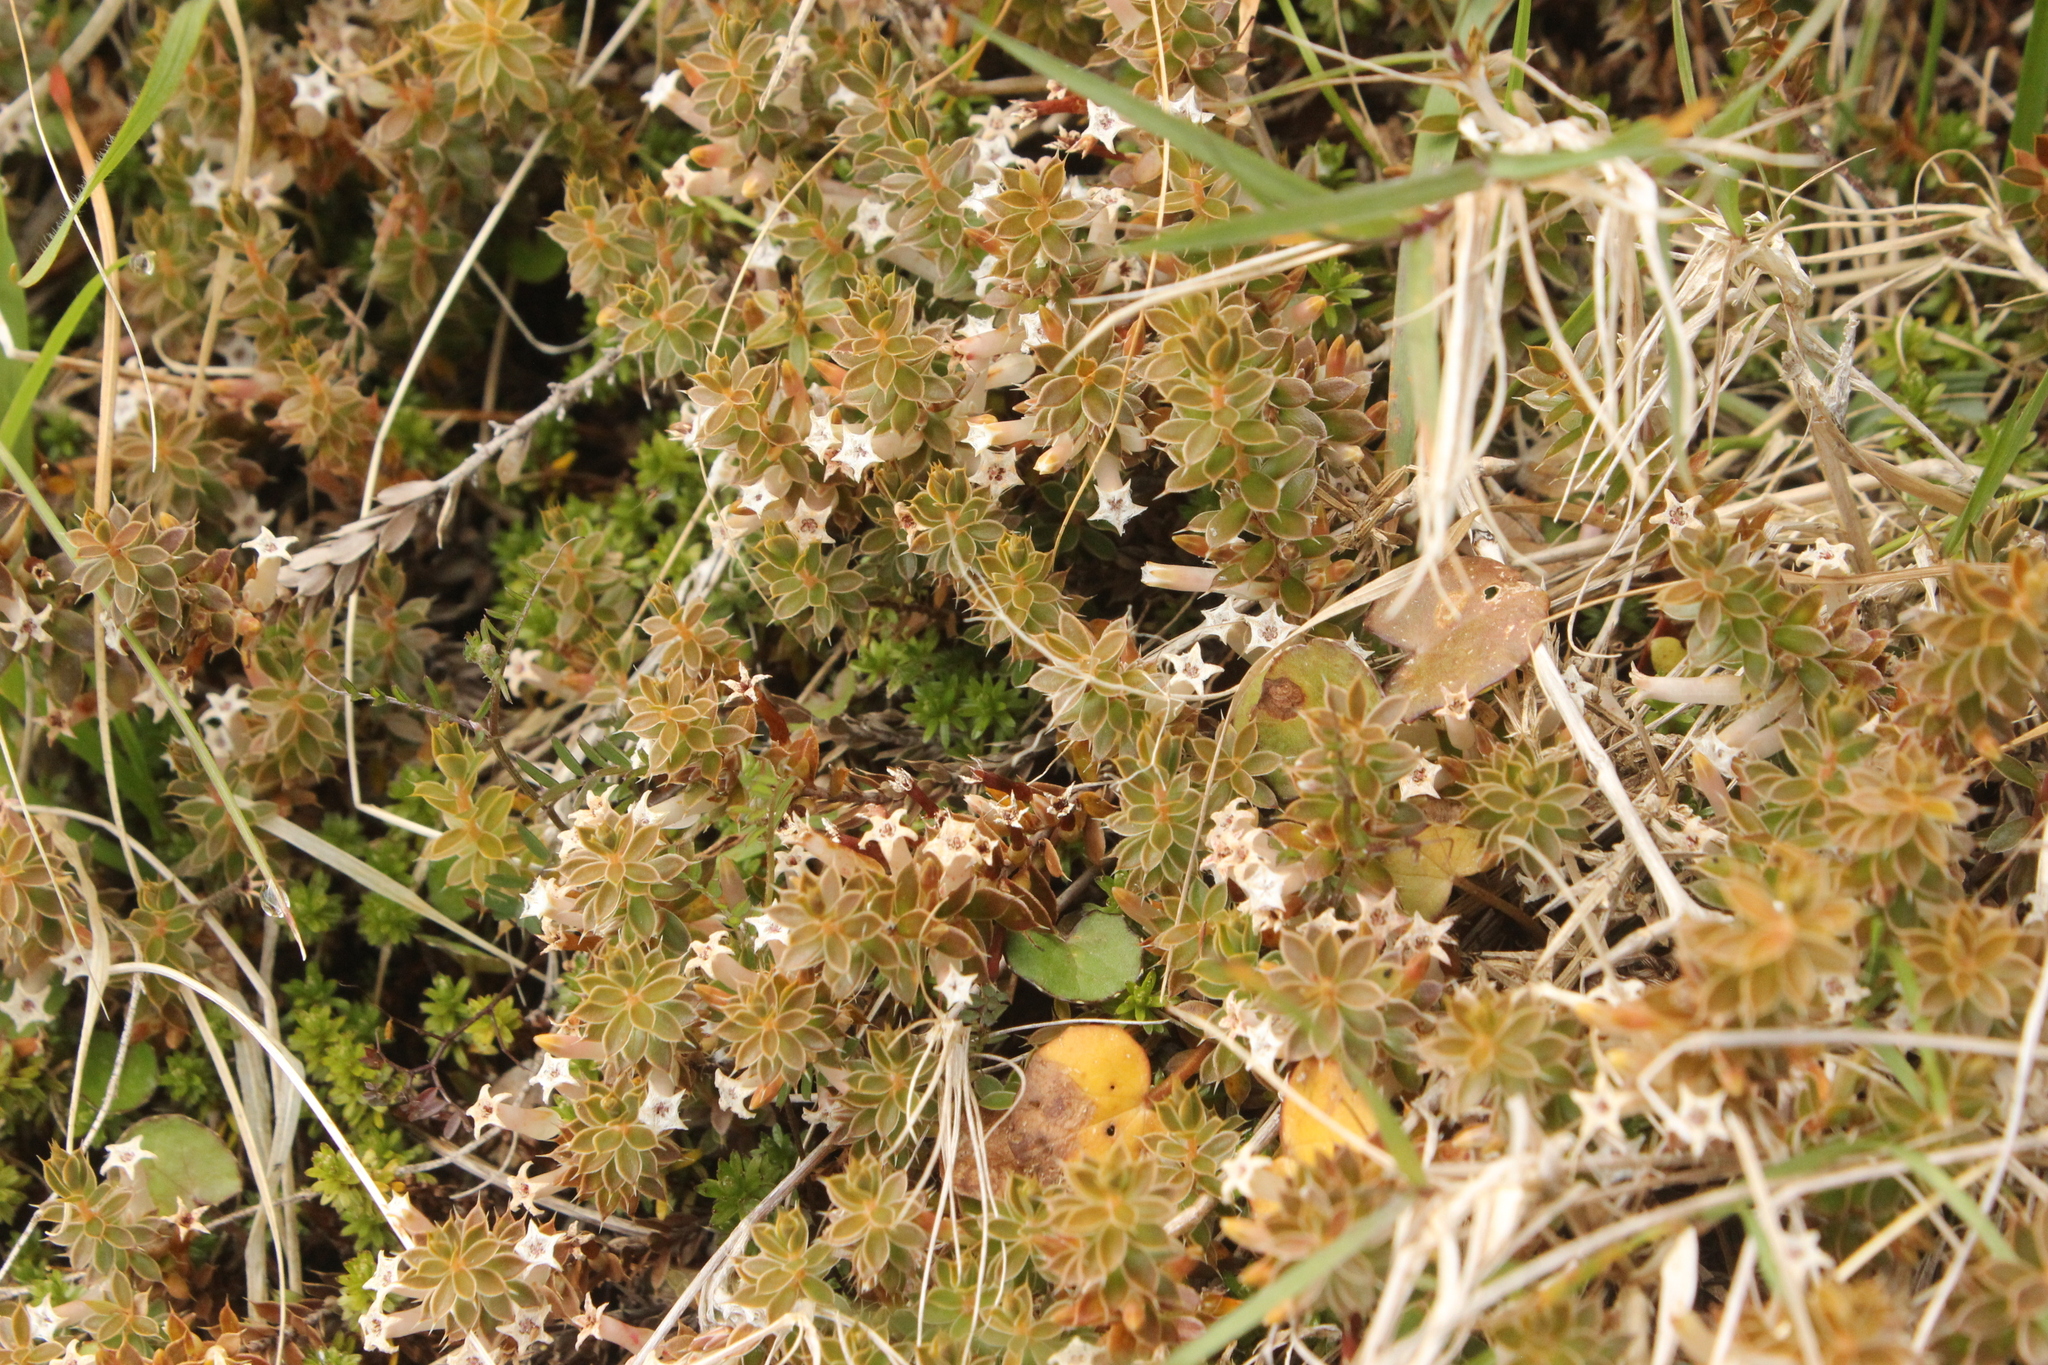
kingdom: Plantae
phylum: Tracheophyta
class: Magnoliopsida
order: Ericales
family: Ericaceae
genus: Styphelia
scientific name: Styphelia nesophila
